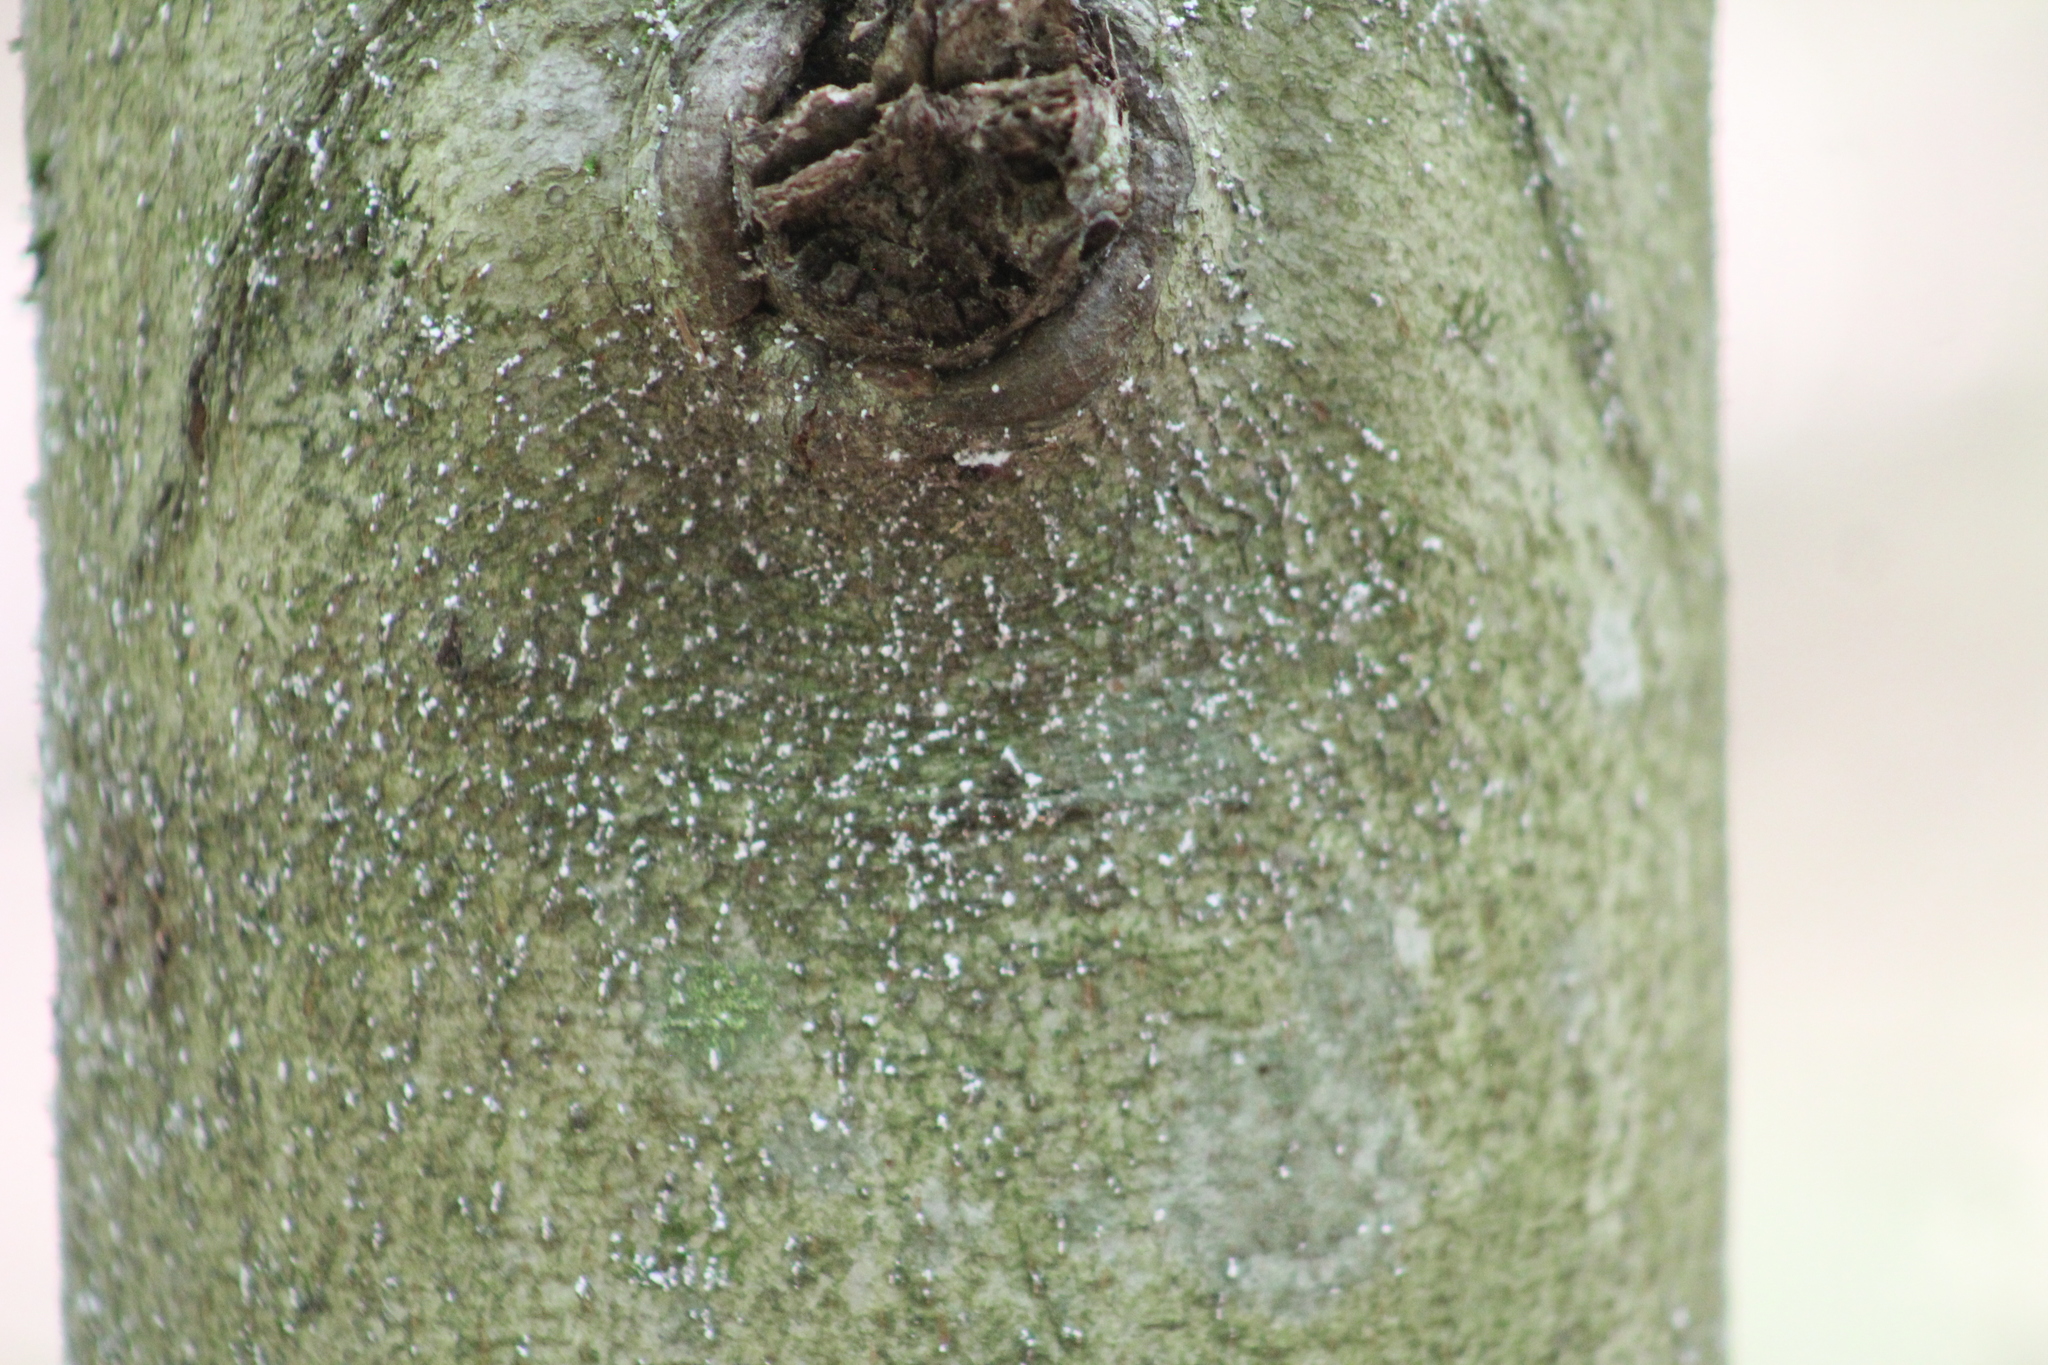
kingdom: Animalia
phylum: Arthropoda
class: Insecta
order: Hemiptera
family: Eriococcidae
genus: Cryptococcus
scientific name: Cryptococcus fagisuga
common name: Beech scale
